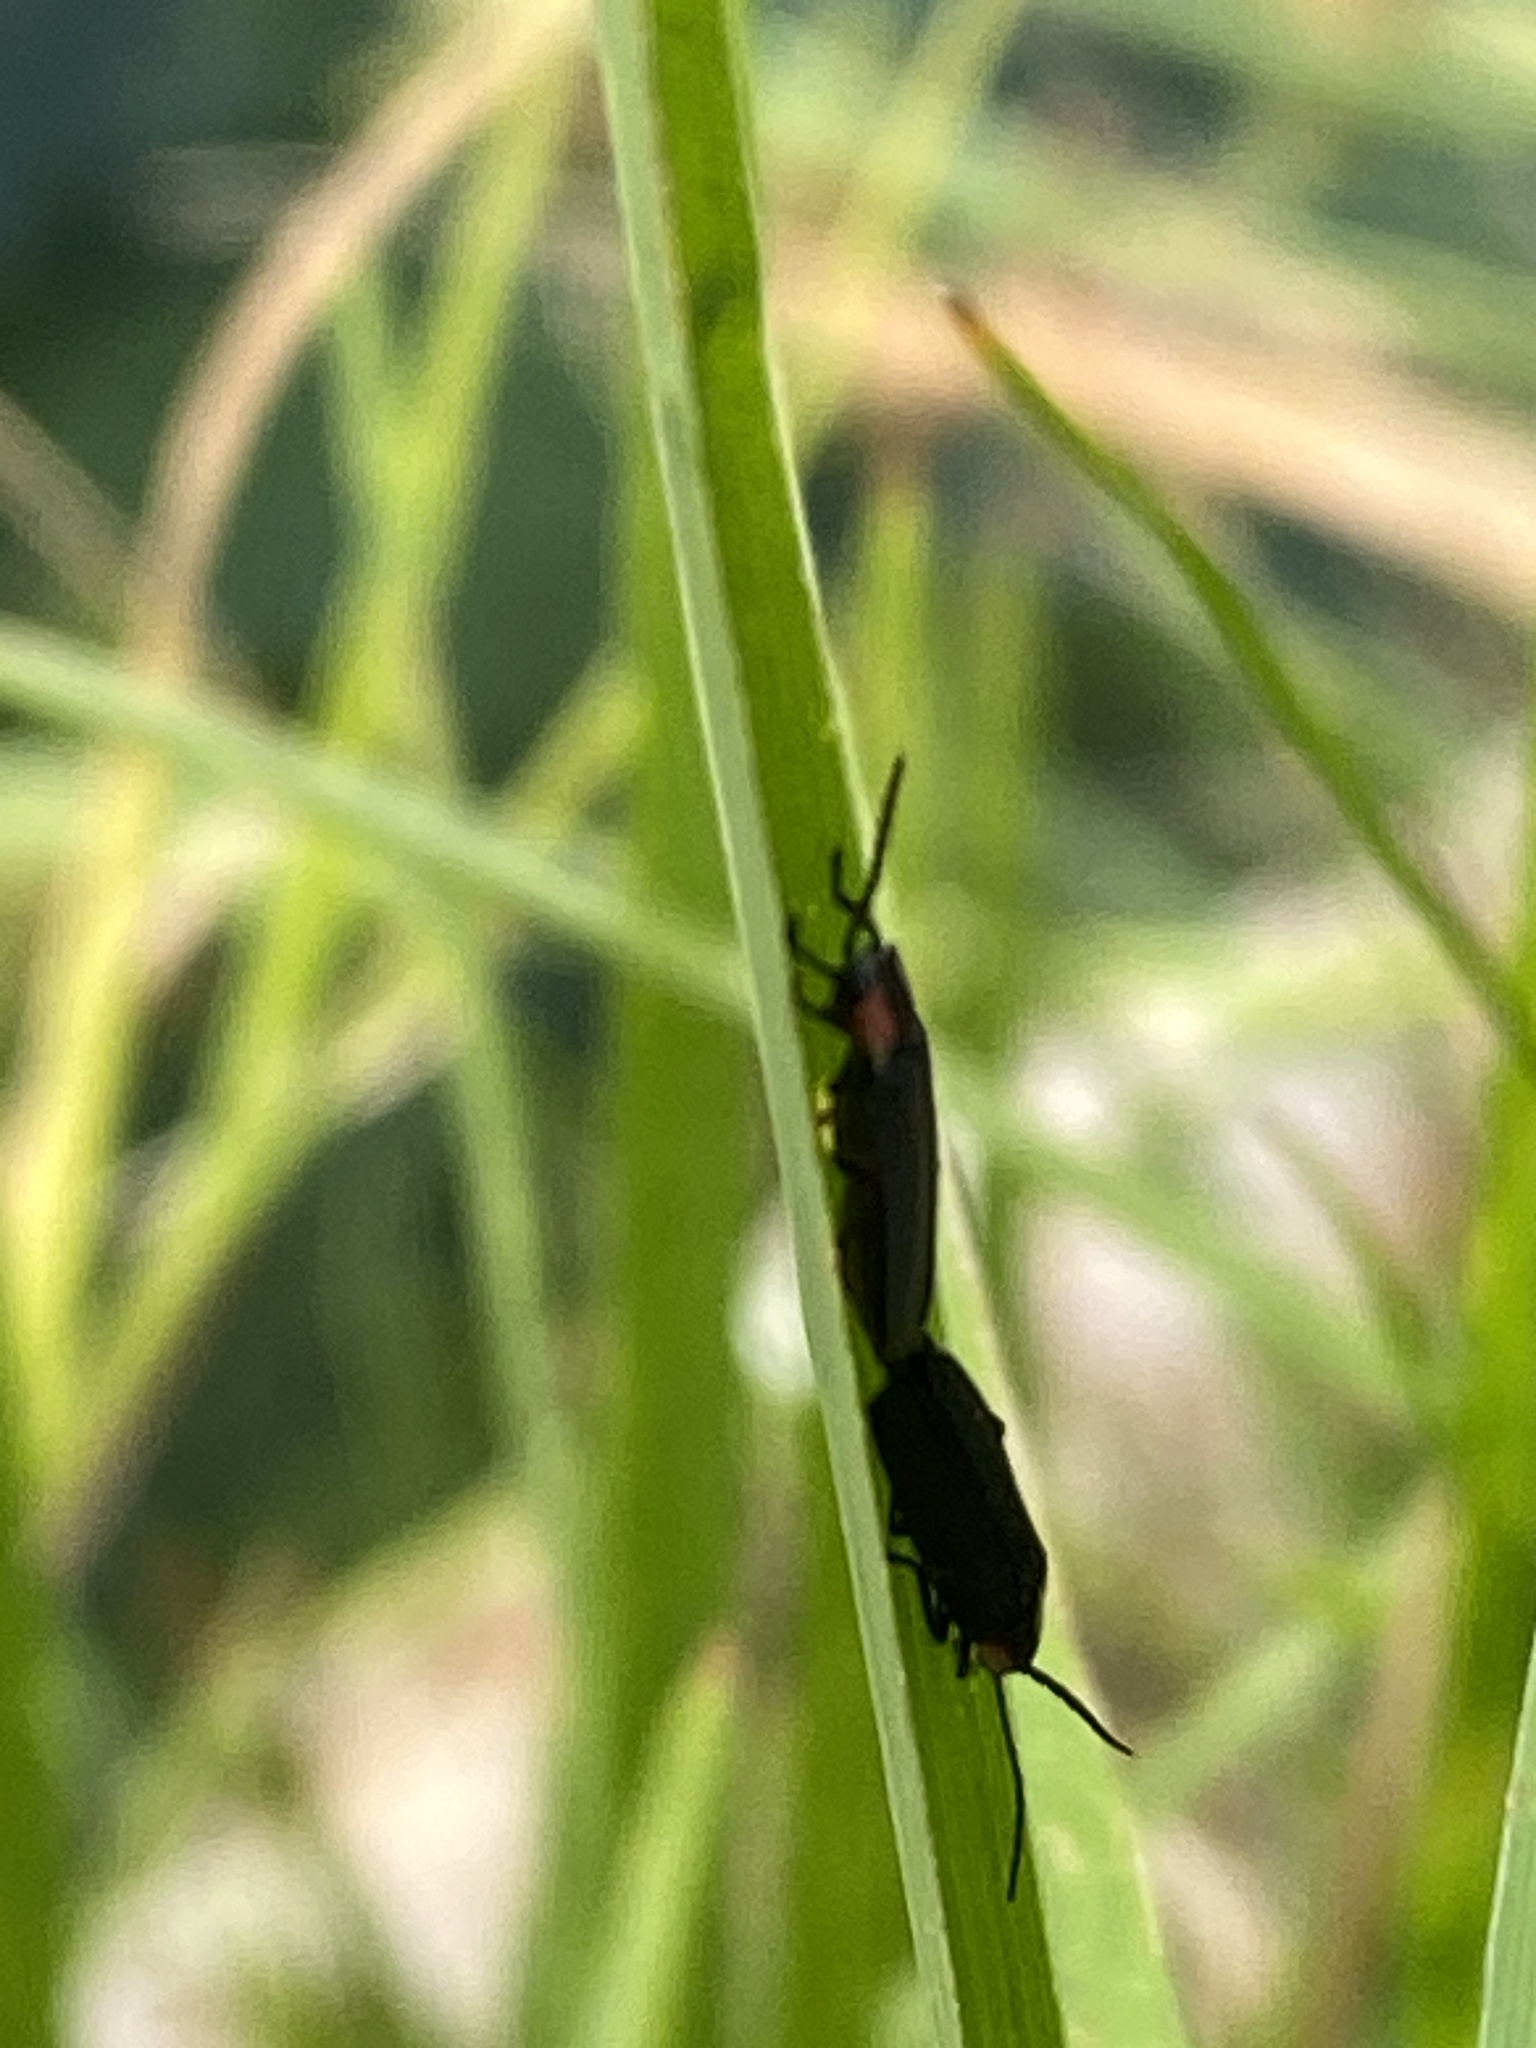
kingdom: Animalia
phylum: Arthropoda
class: Insecta
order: Coleoptera
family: Lampyridae
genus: Pyropyga
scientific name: Pyropyga
